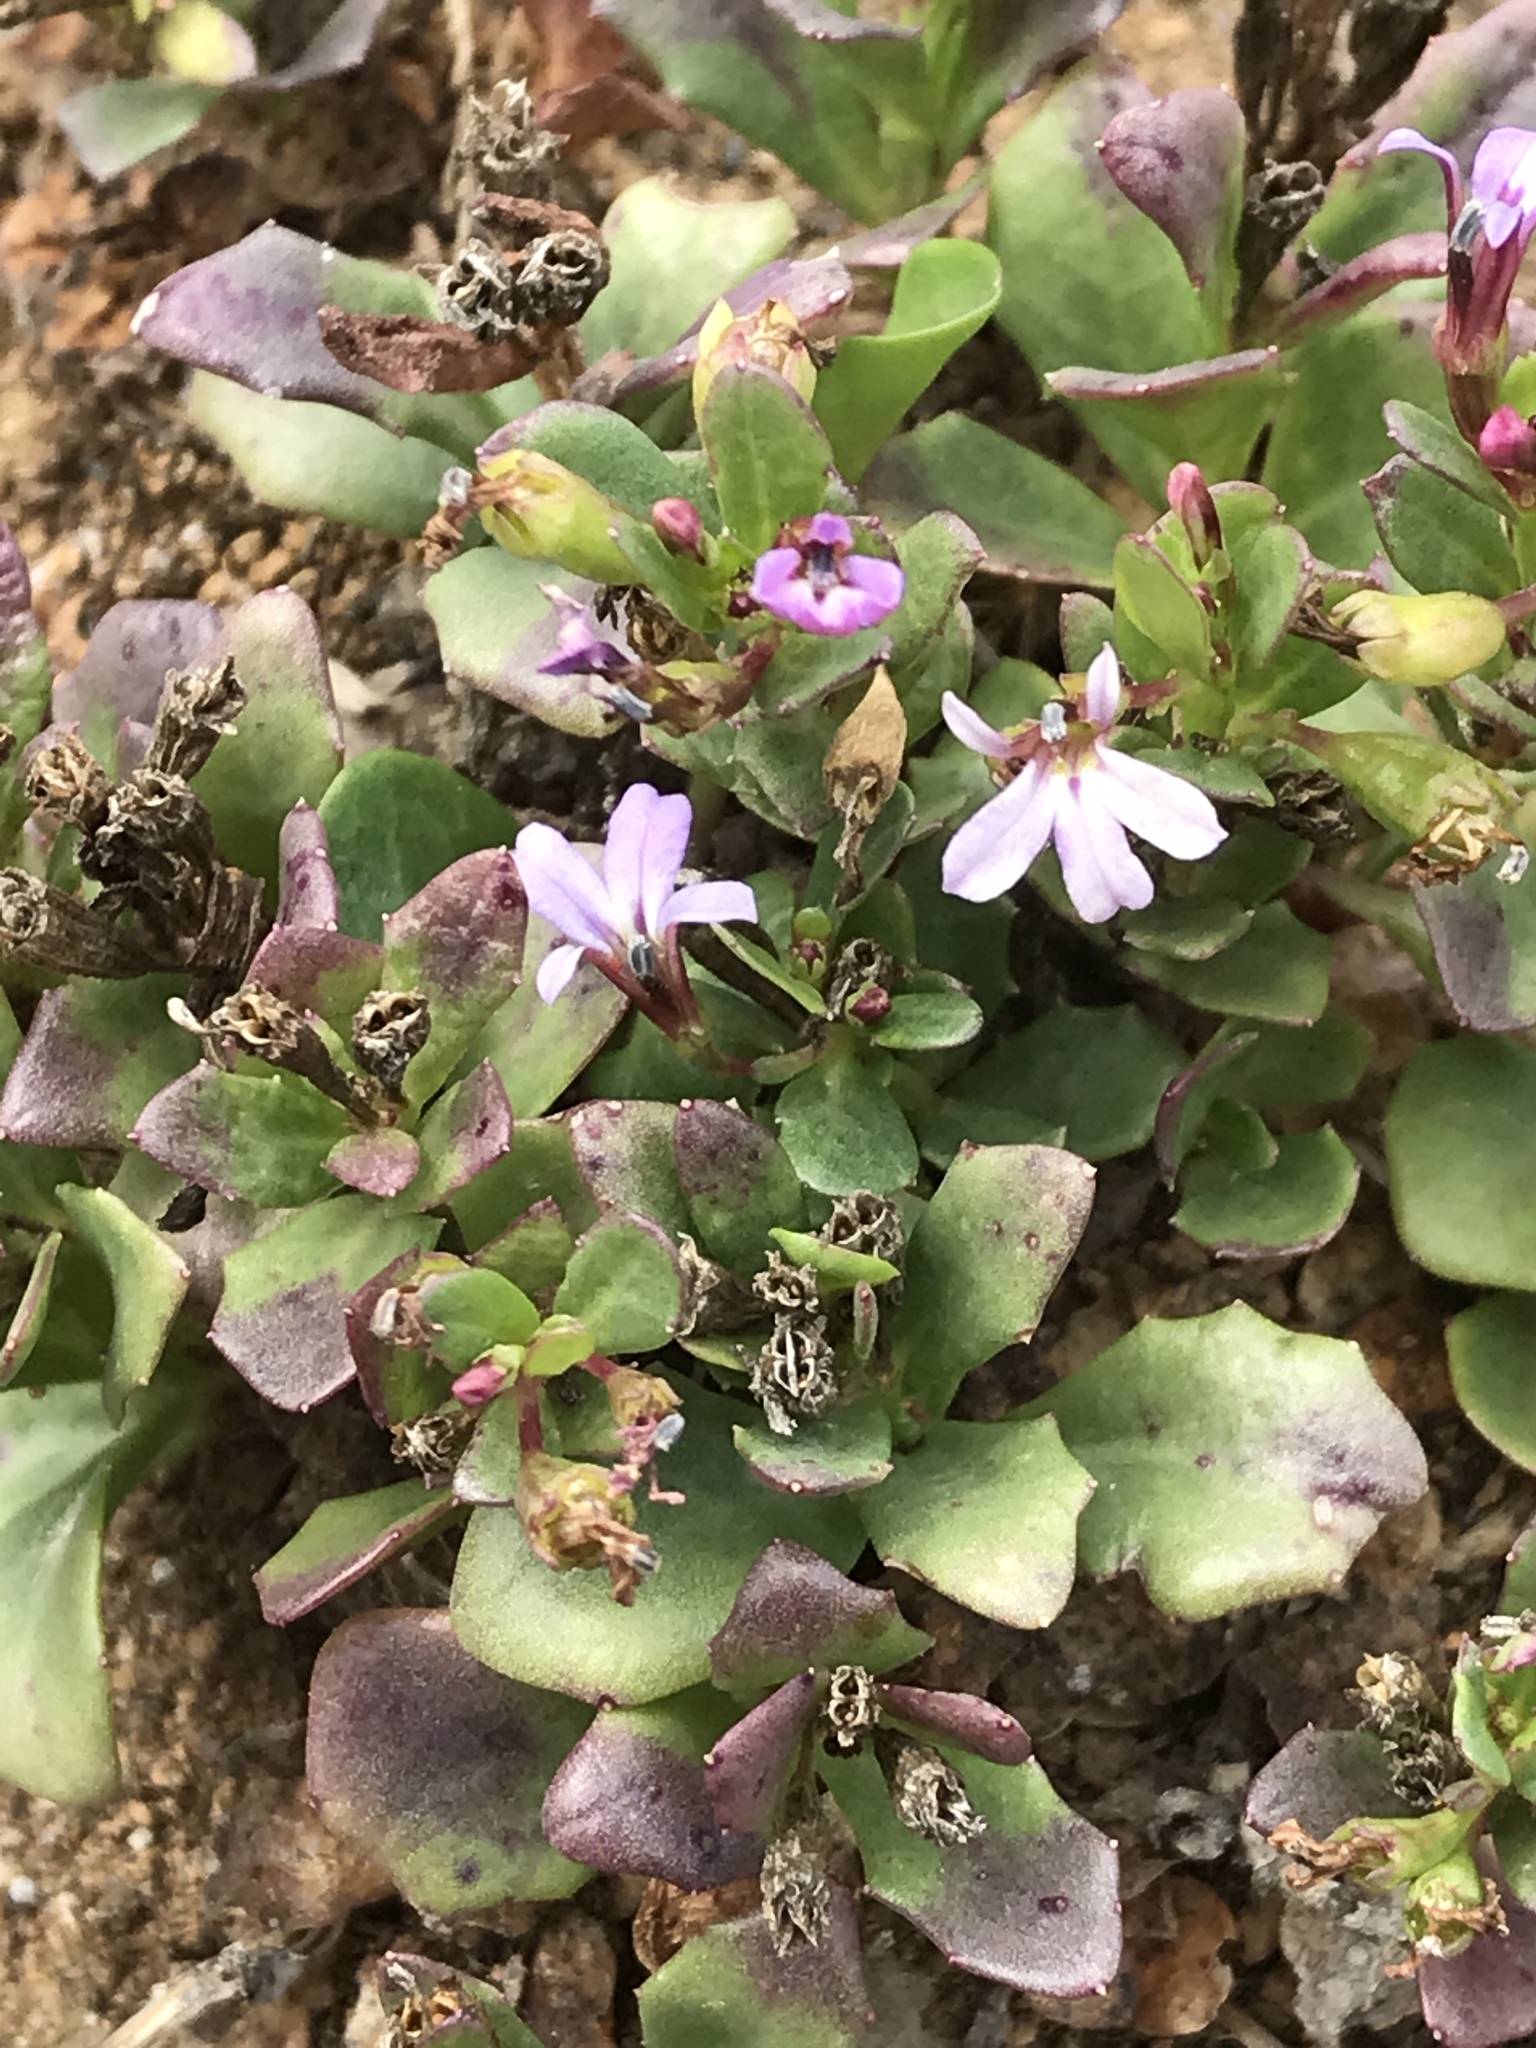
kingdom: Plantae
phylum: Tracheophyta
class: Magnoliopsida
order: Asterales
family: Campanulaceae
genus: Lobelia
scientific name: Lobelia anceps
